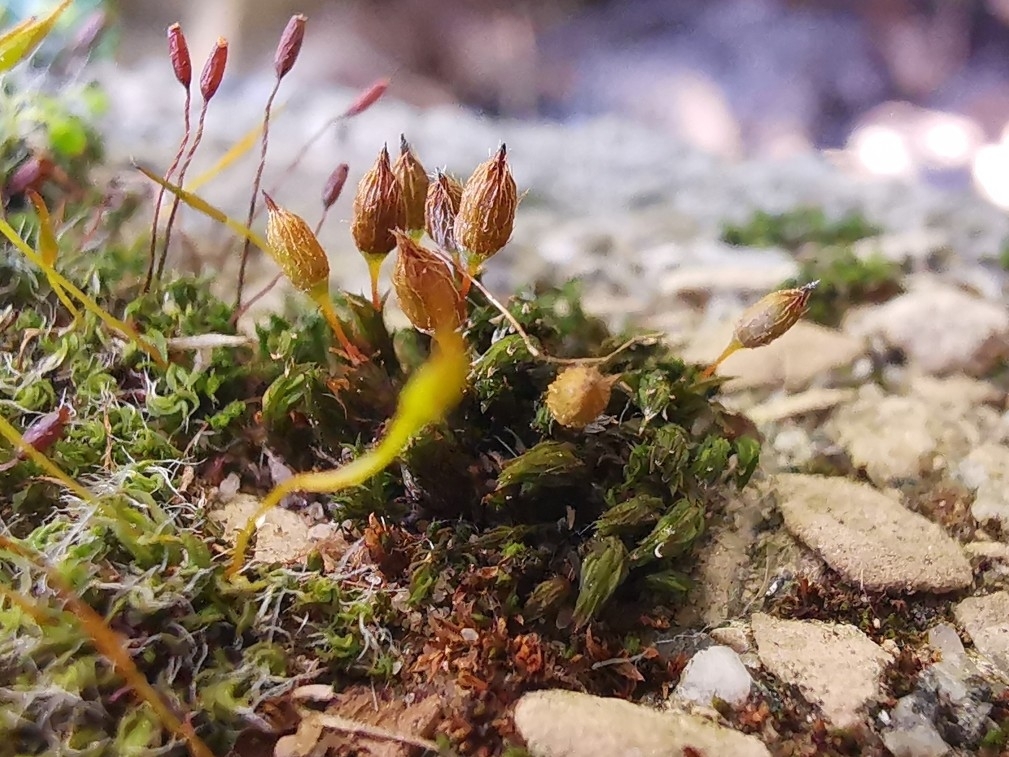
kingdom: Plantae
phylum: Bryophyta
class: Bryopsida
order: Orthotrichales
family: Orthotrichaceae
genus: Orthotrichum
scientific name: Orthotrichum anomalum
